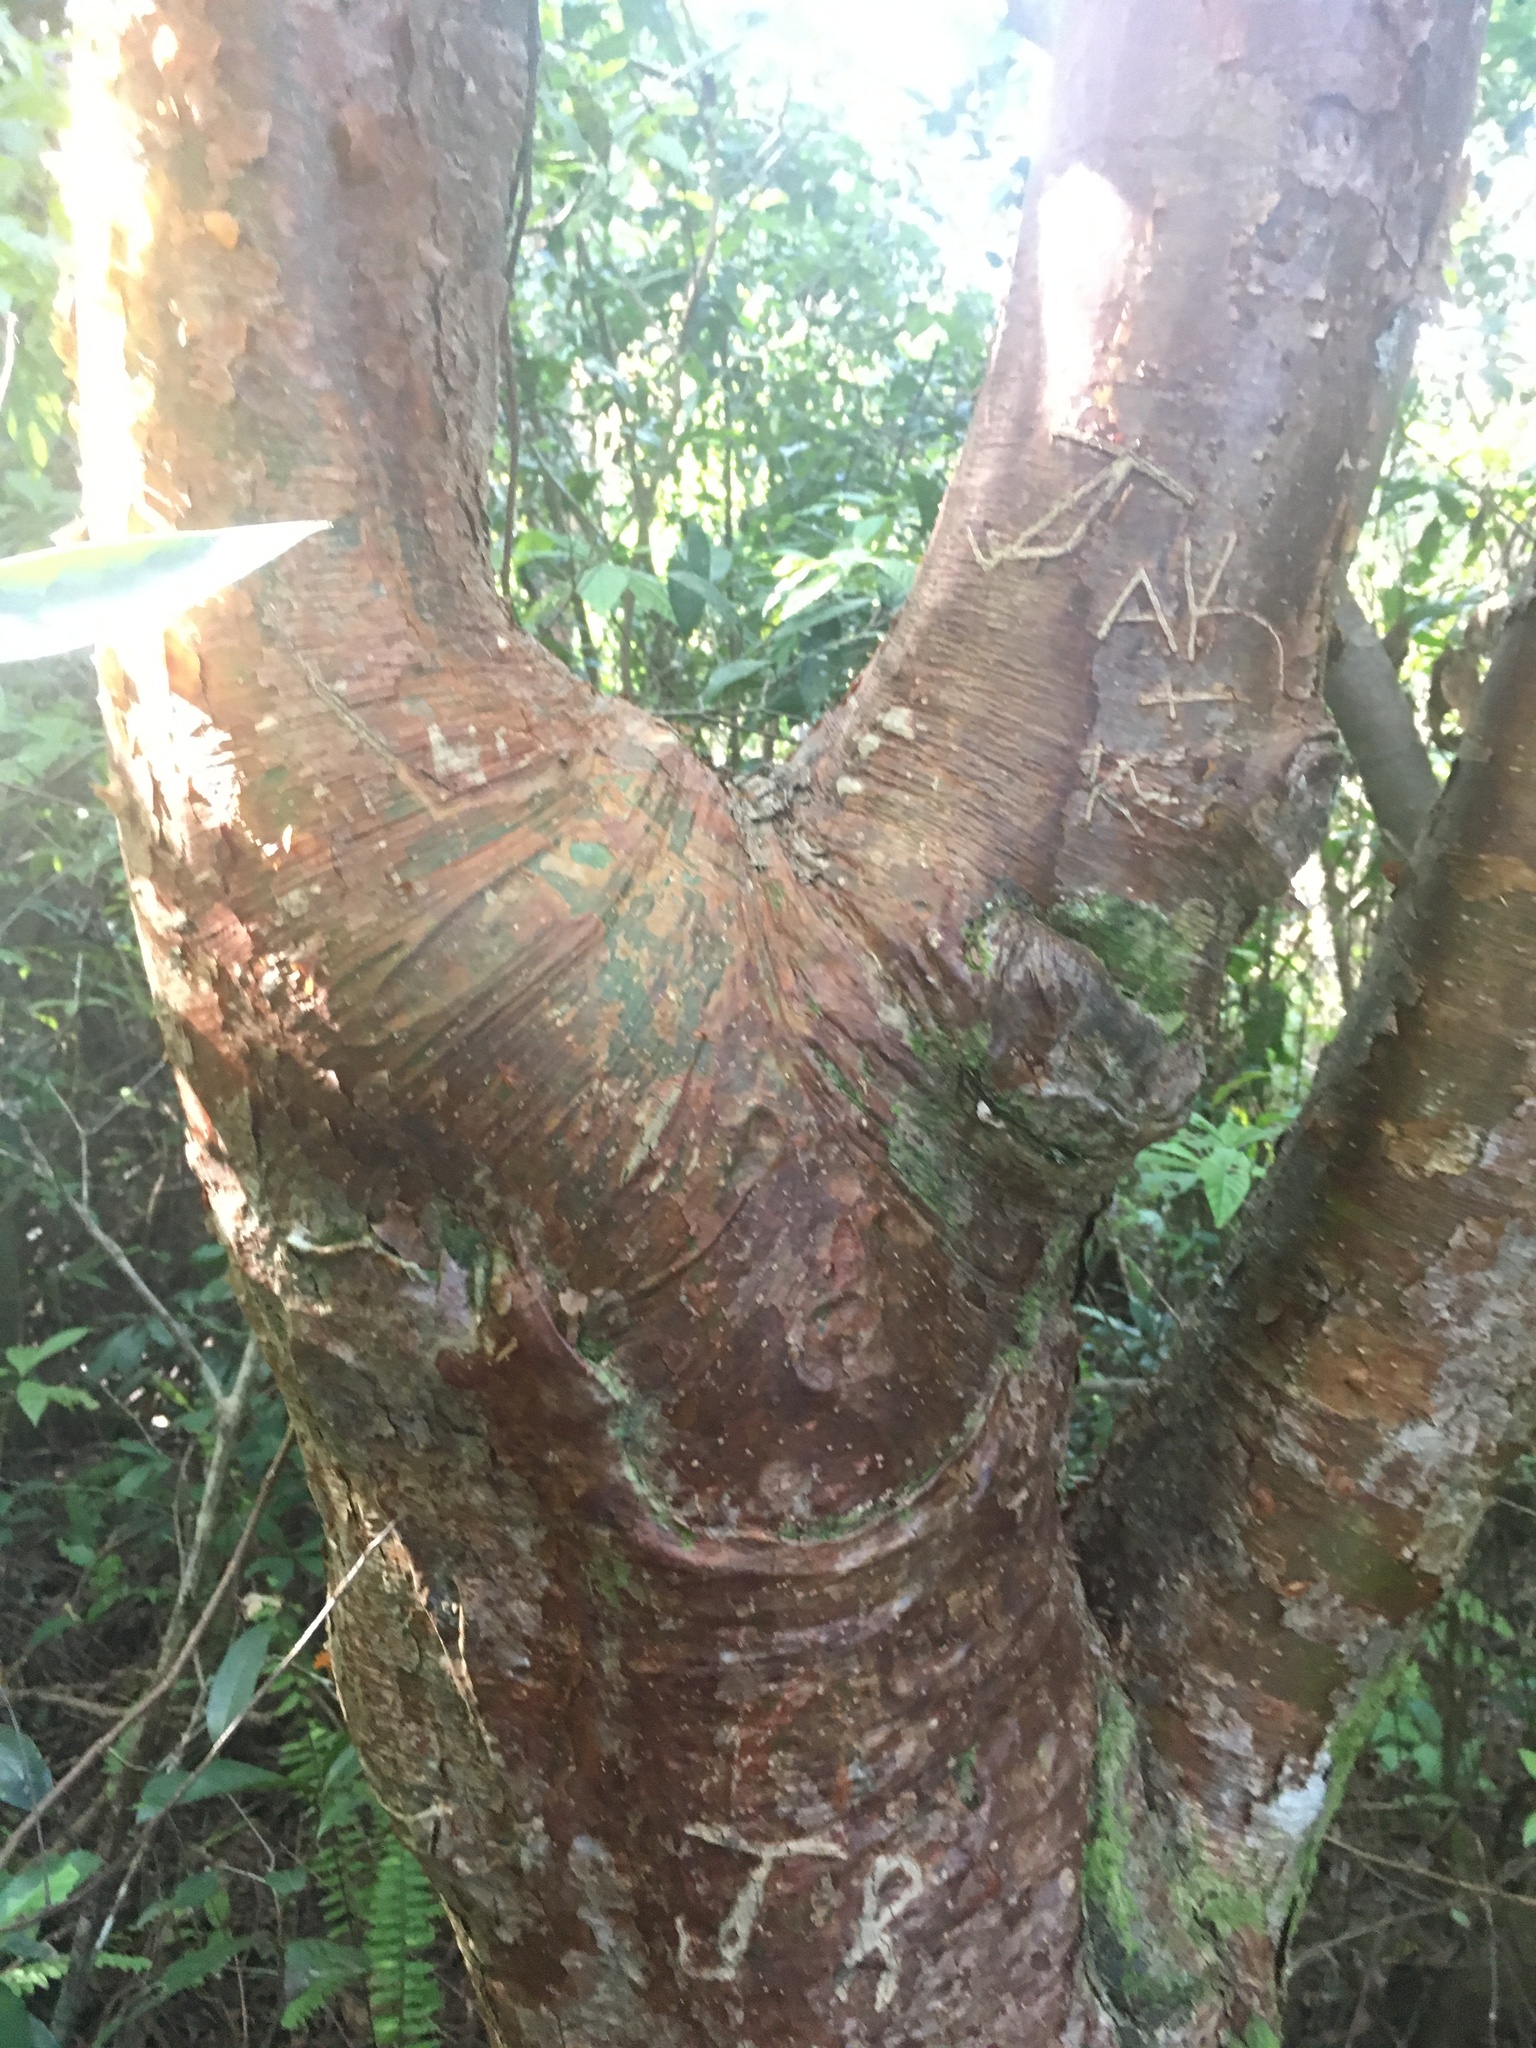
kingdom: Plantae
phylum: Tracheophyta
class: Magnoliopsida
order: Sapindales
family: Burseraceae
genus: Bursera
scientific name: Bursera simaruba
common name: Turpentine tree
